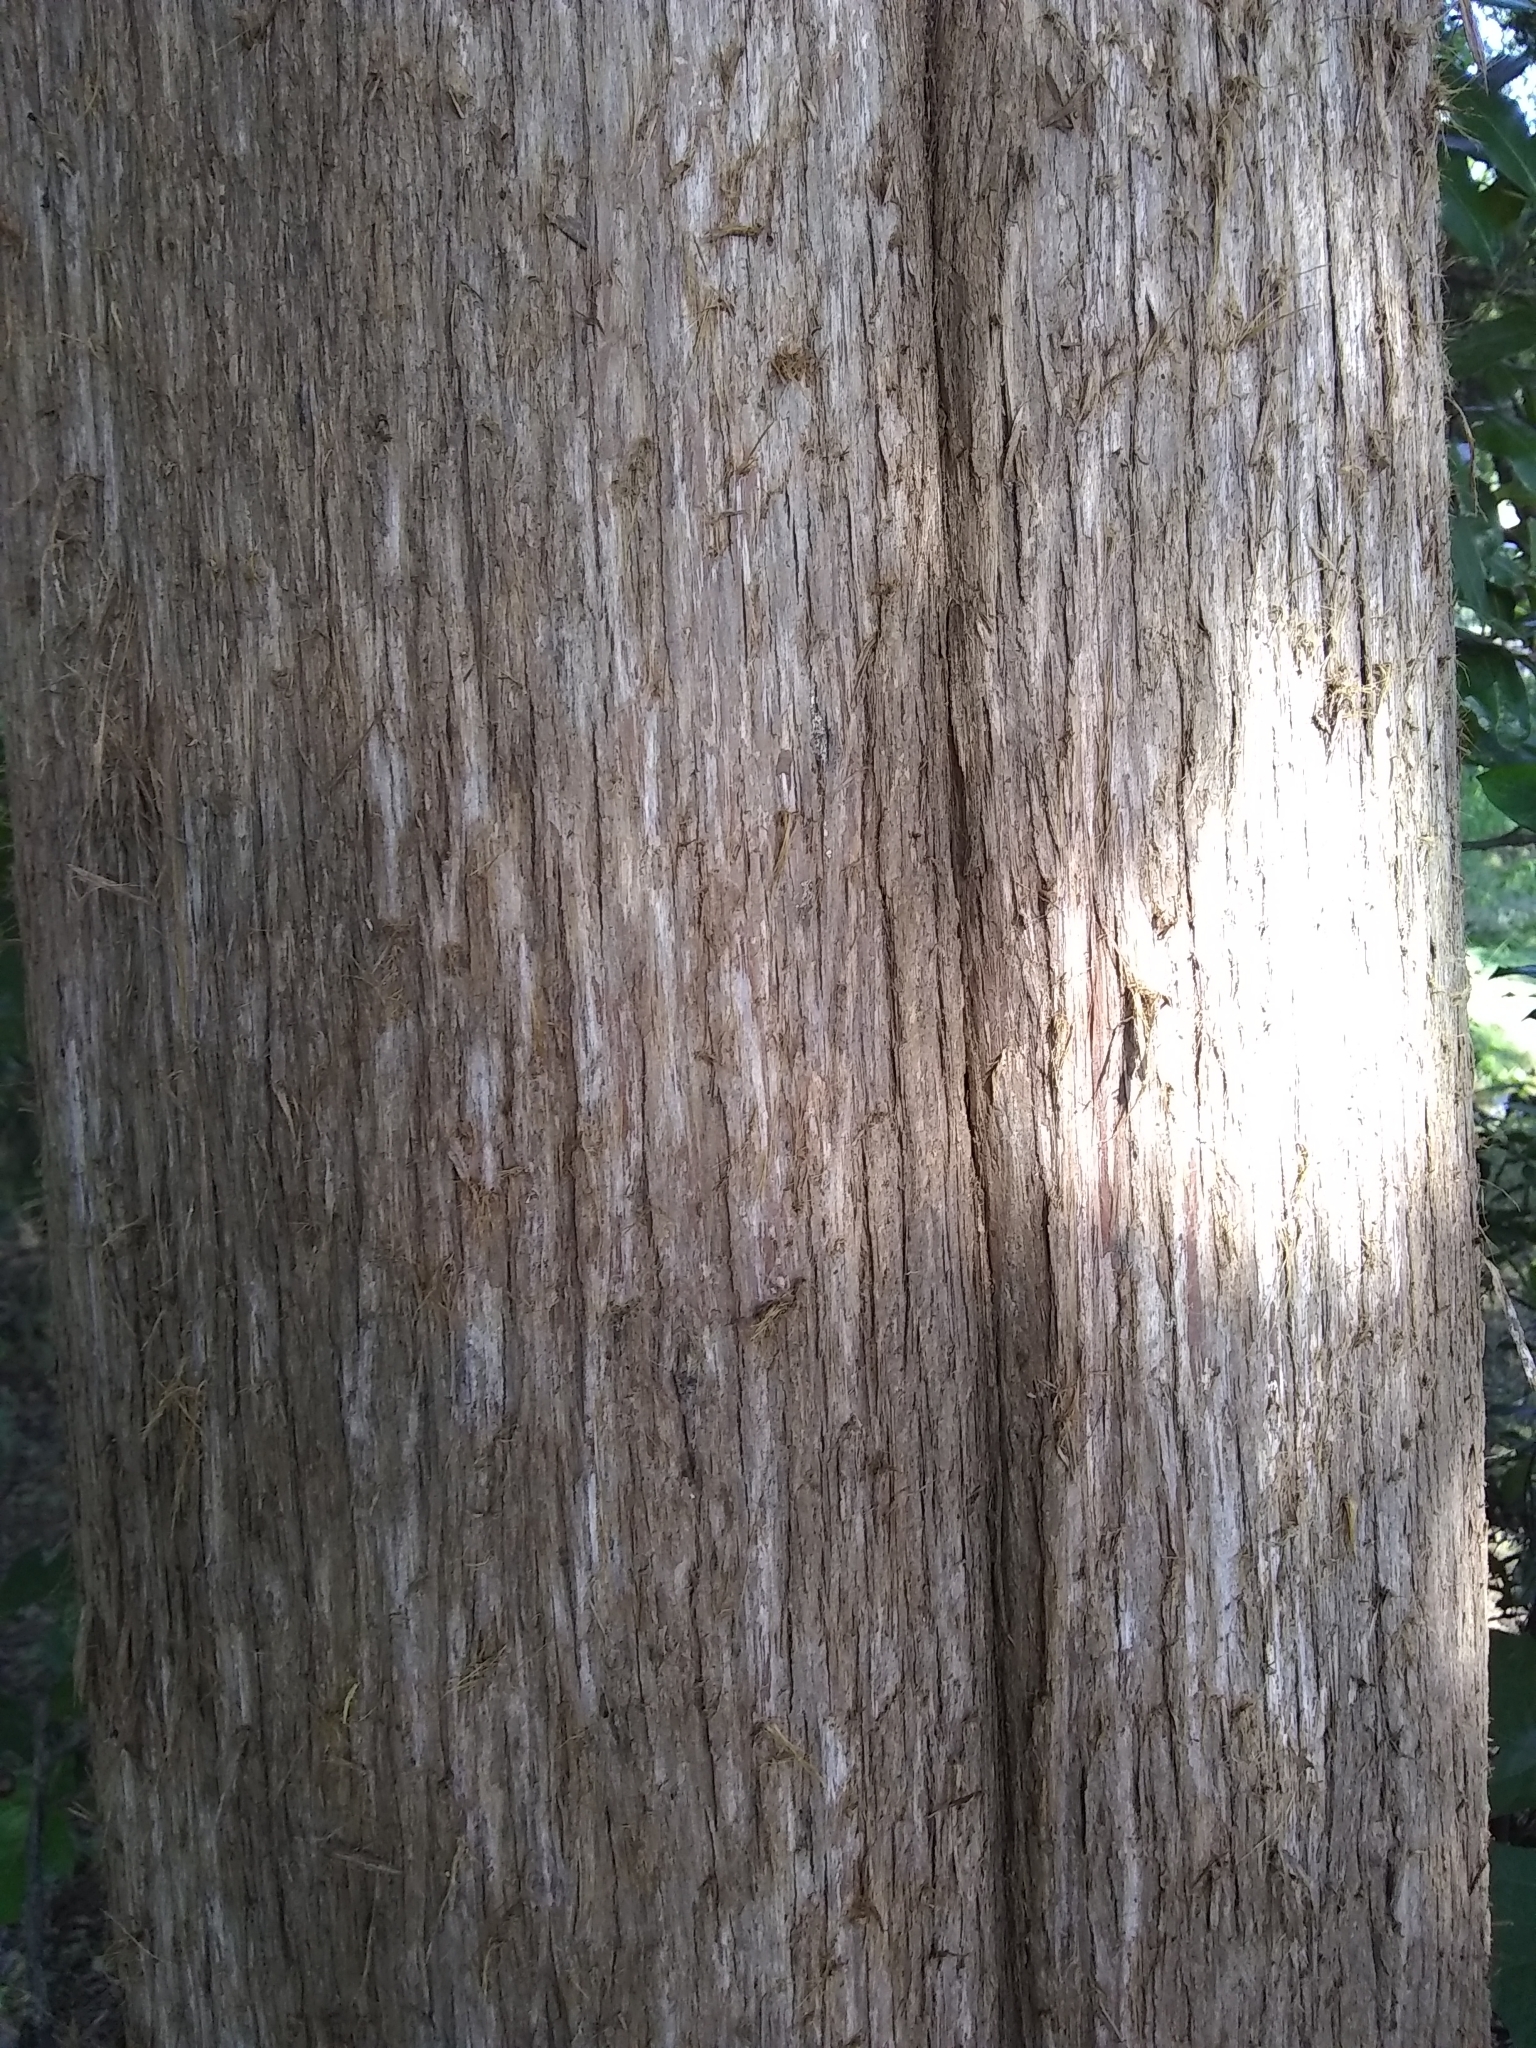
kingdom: Plantae
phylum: Tracheophyta
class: Pinopsida
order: Pinales
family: Cupressaceae
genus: Juniperus
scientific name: Juniperus virginiana
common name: Red juniper
